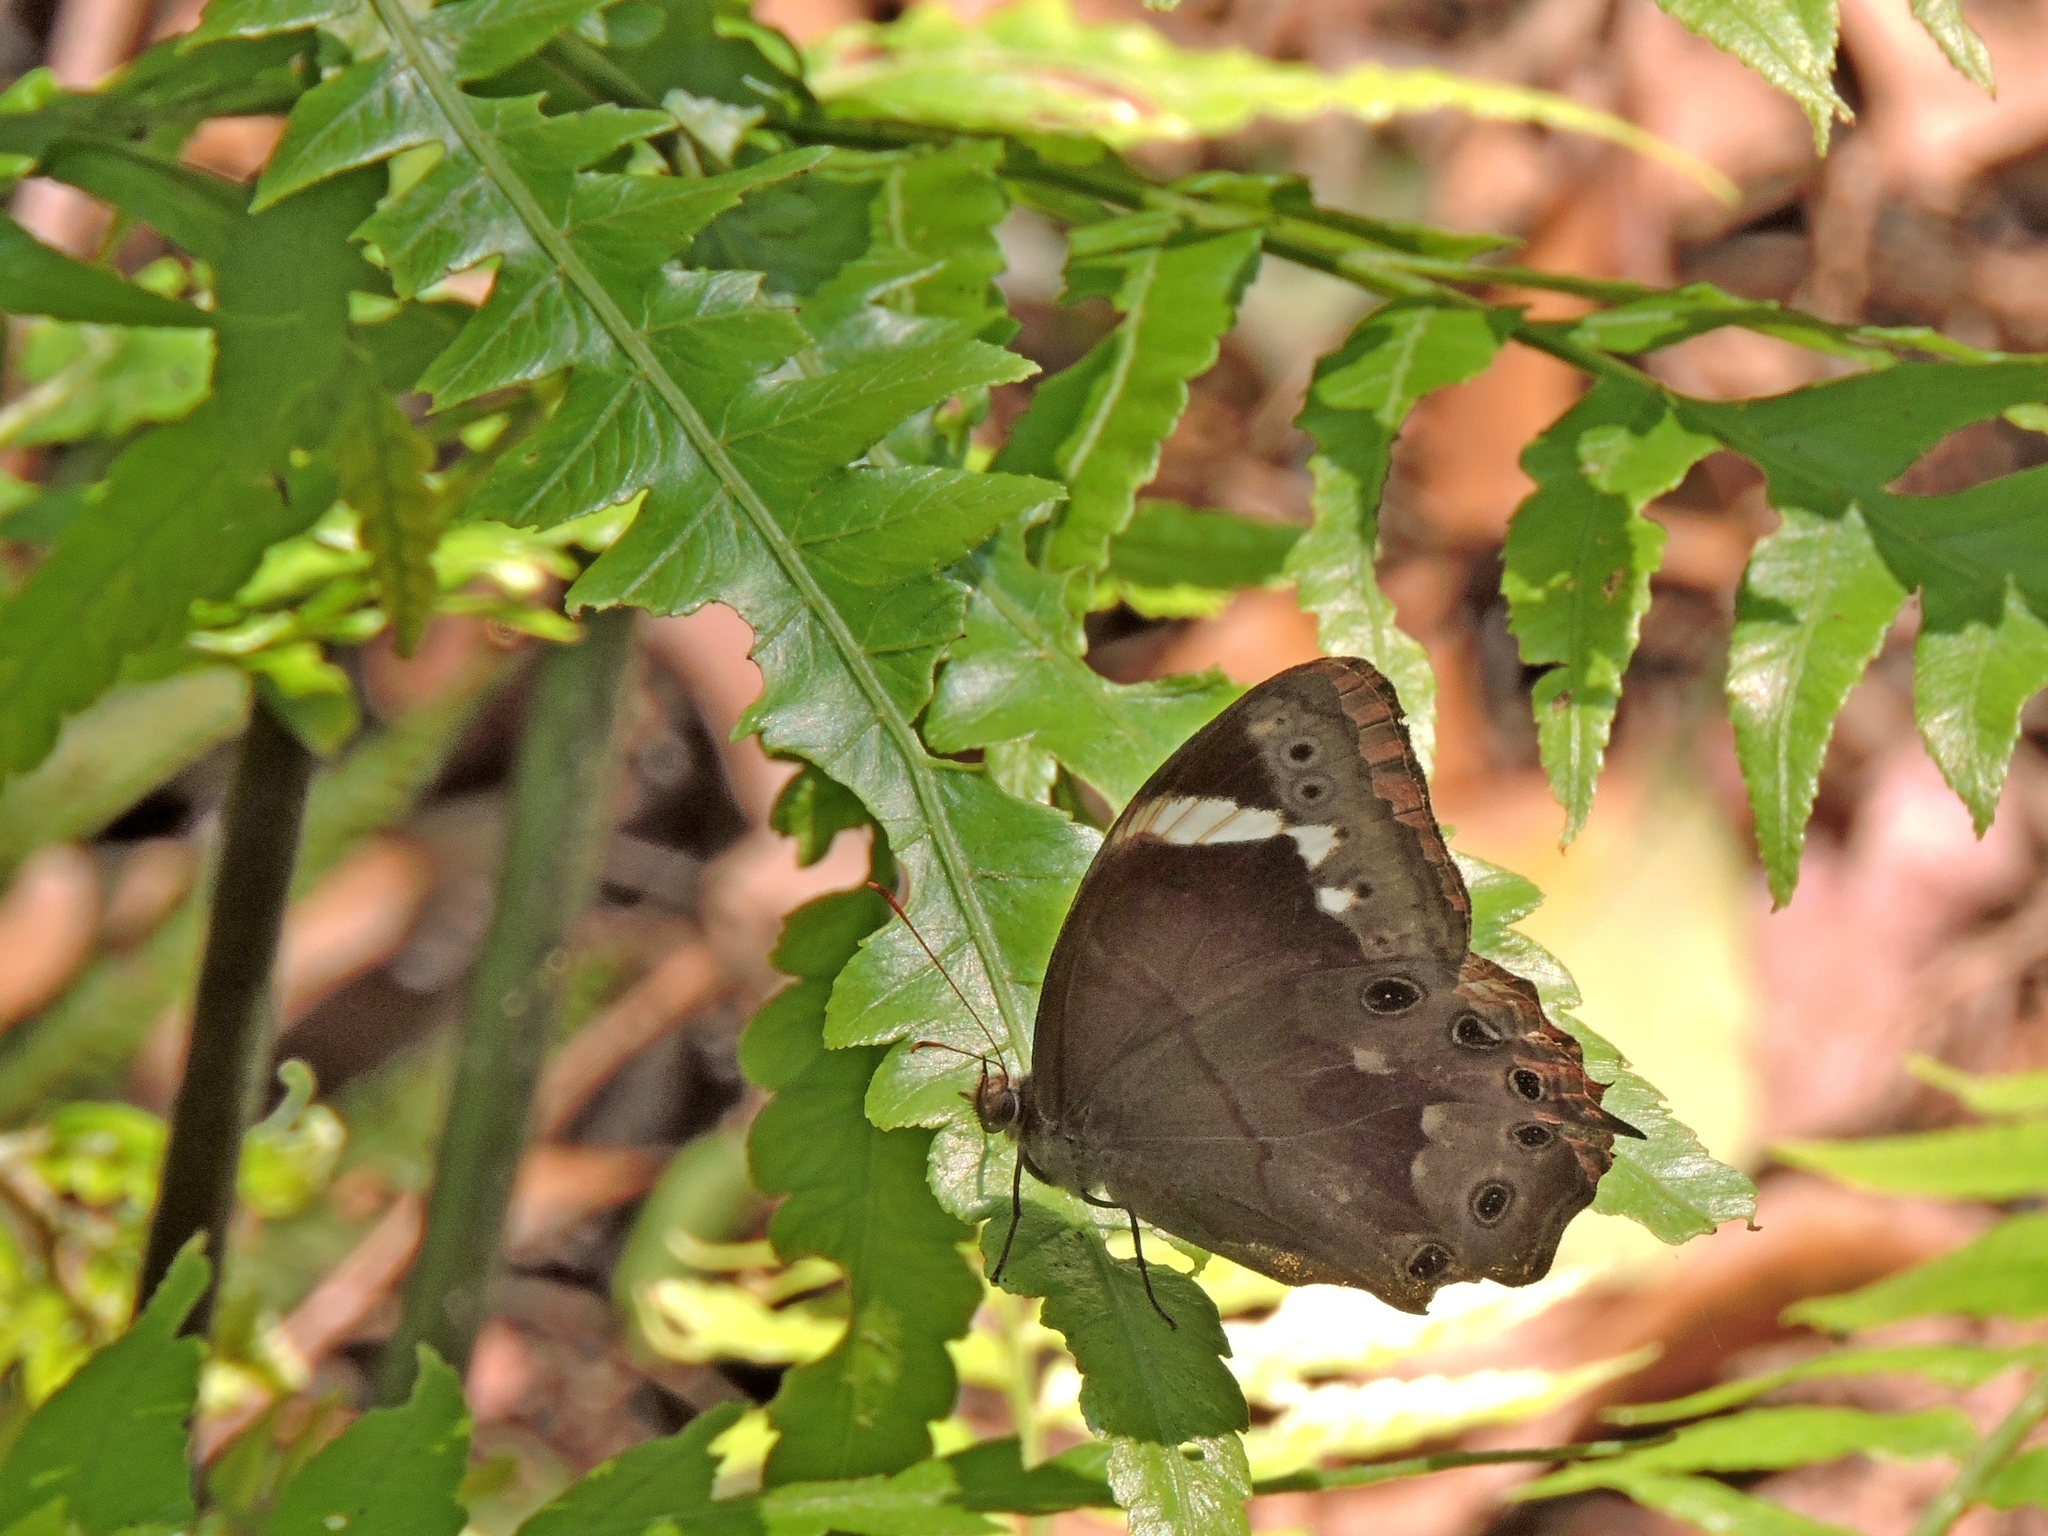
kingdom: Animalia
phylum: Arthropoda
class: Insecta
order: Lepidoptera
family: Nymphalidae
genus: Lethe
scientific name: Lethe chandica
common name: Angled red forester
